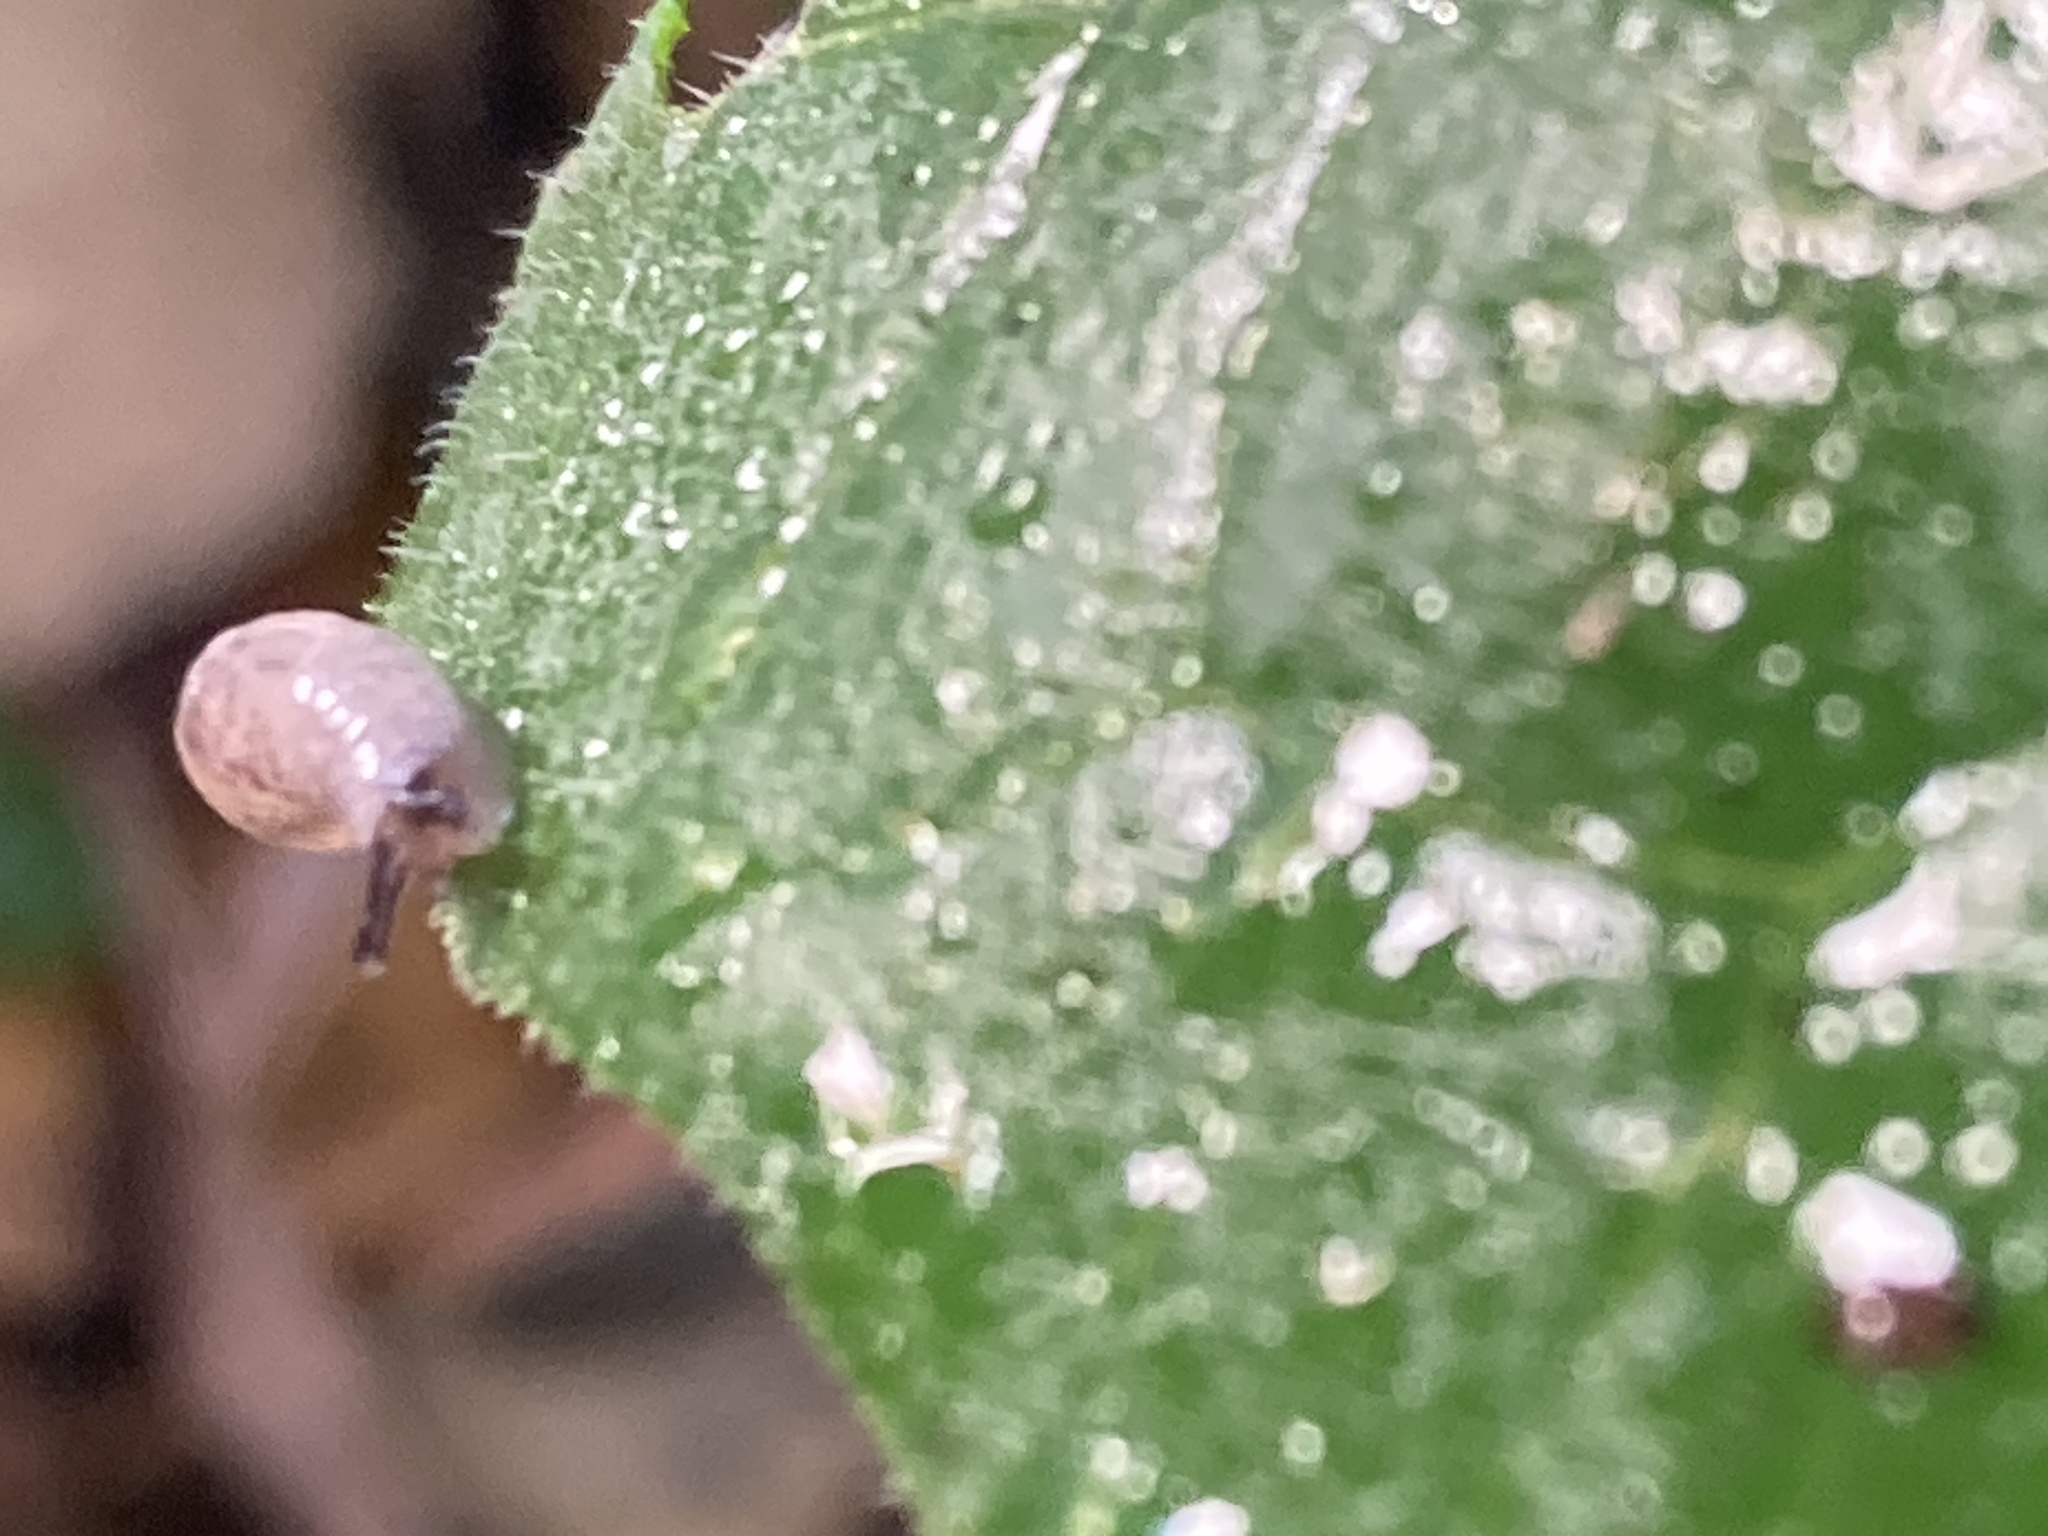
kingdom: Animalia
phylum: Mollusca
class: Gastropoda
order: Stylommatophora
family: Agriolimacidae
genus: Deroceras
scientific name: Deroceras reticulatum
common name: Gray field slug
